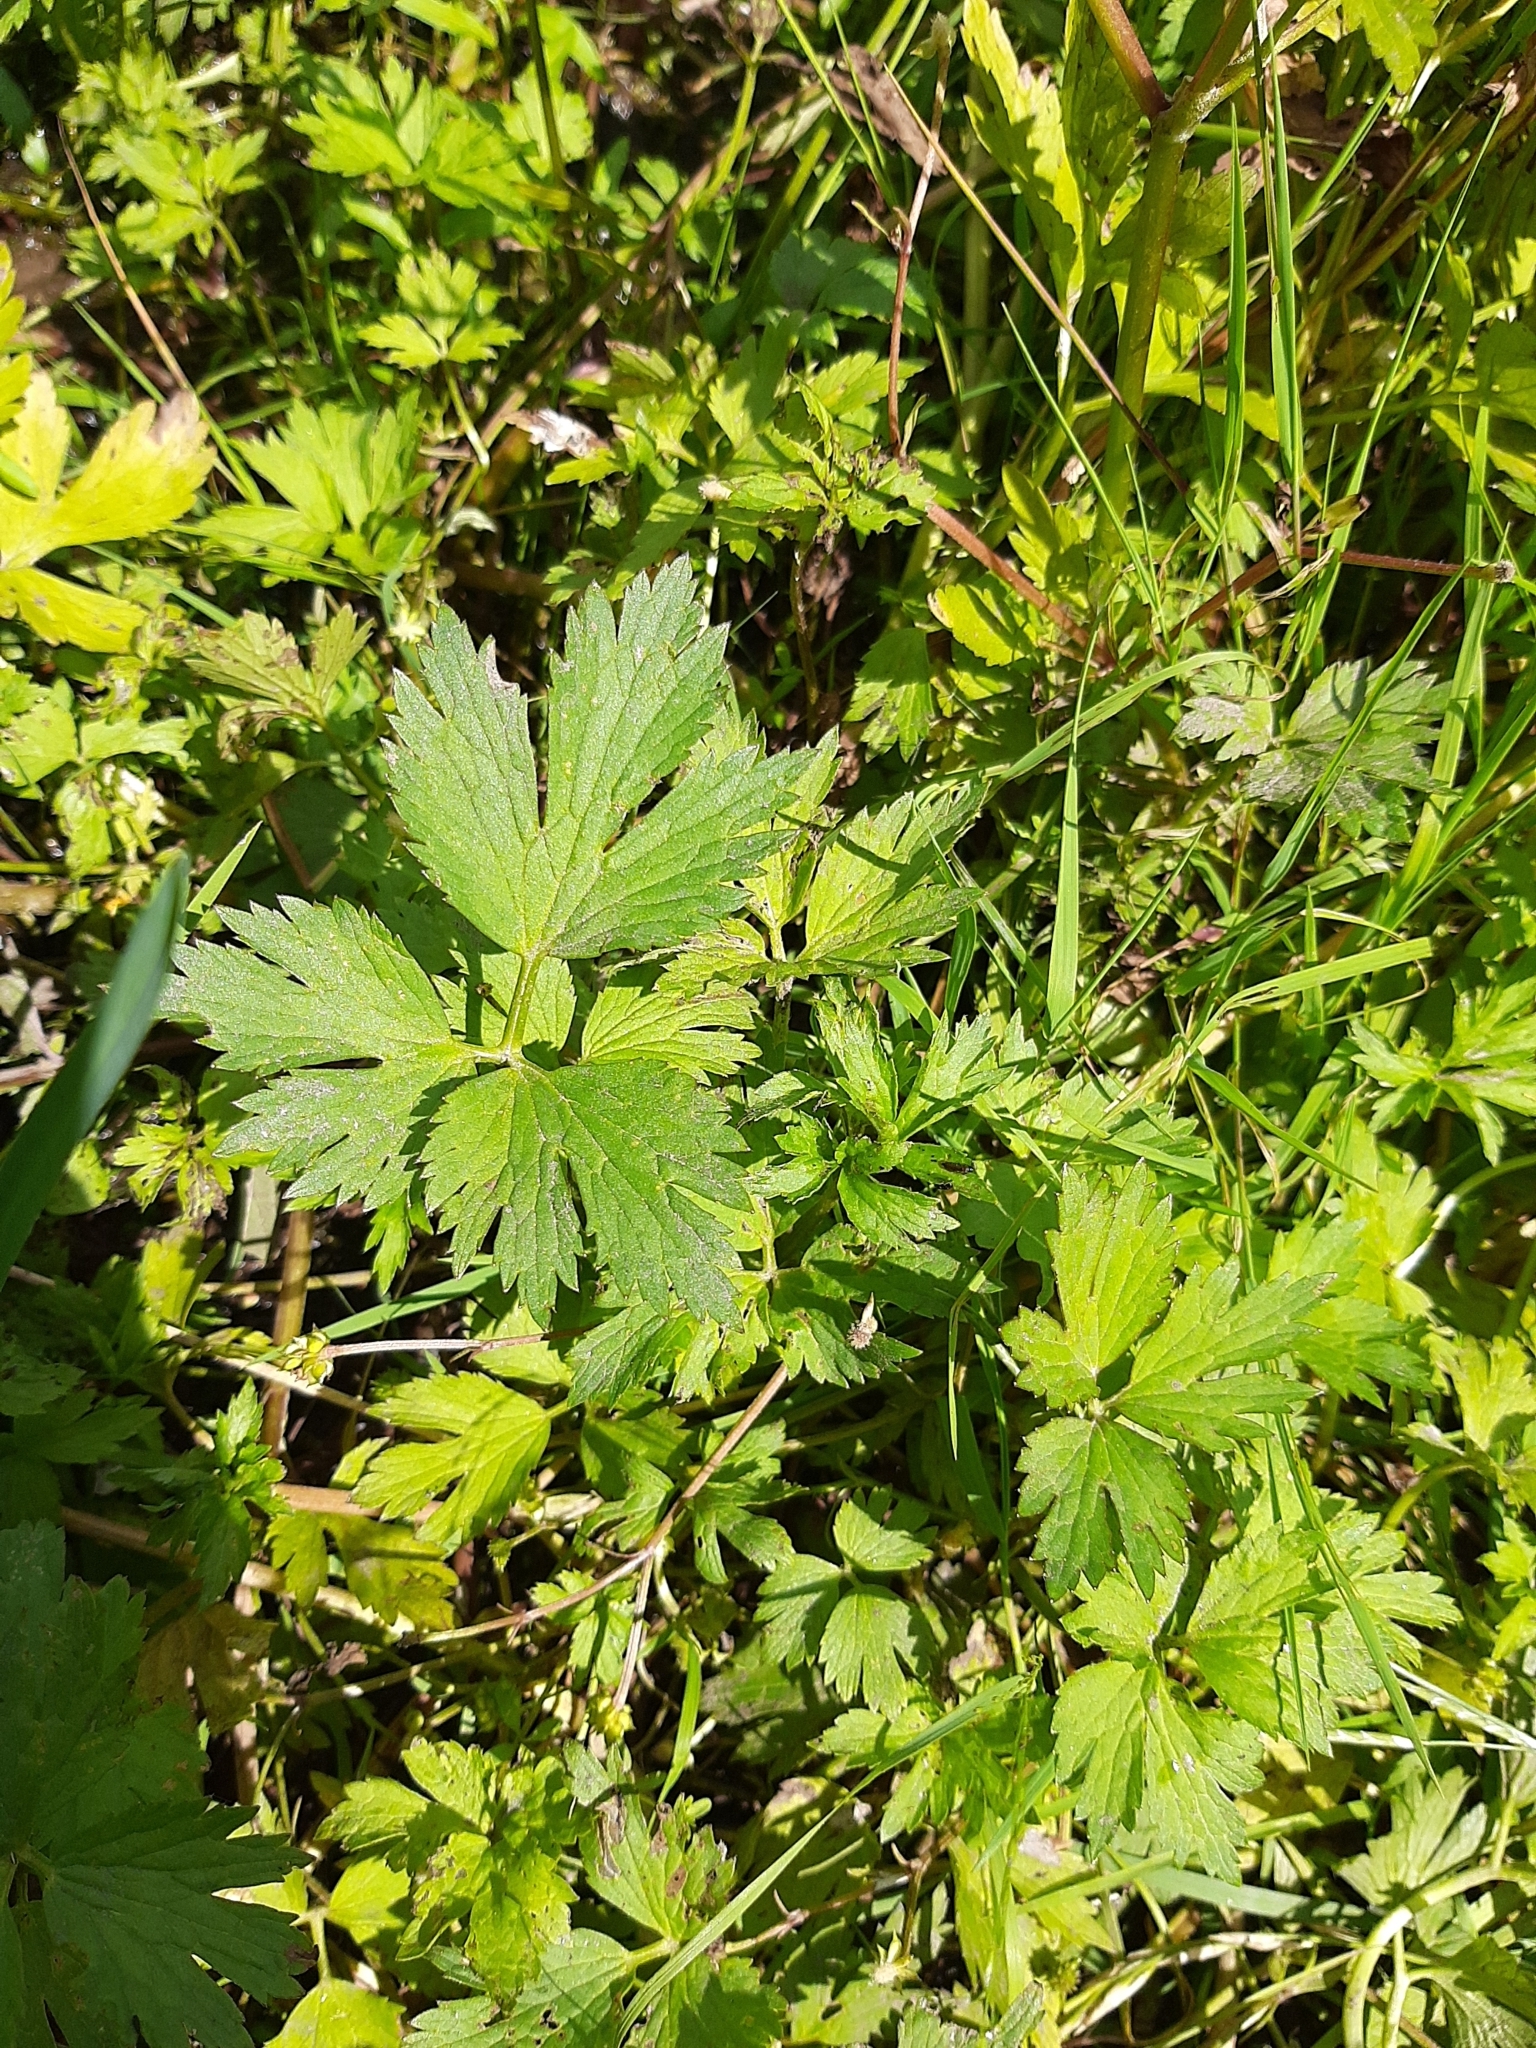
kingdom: Plantae
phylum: Tracheophyta
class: Magnoliopsida
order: Ranunculales
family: Ranunculaceae
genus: Ranunculus
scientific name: Ranunculus repens
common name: Creeping buttercup
